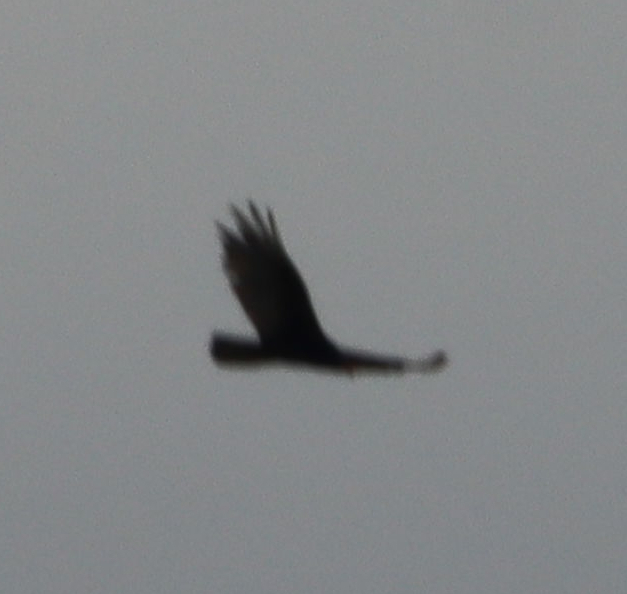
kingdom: Animalia
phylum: Chordata
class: Aves
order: Accipitriformes
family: Cathartidae
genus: Cathartes
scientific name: Cathartes aura
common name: Turkey vulture
